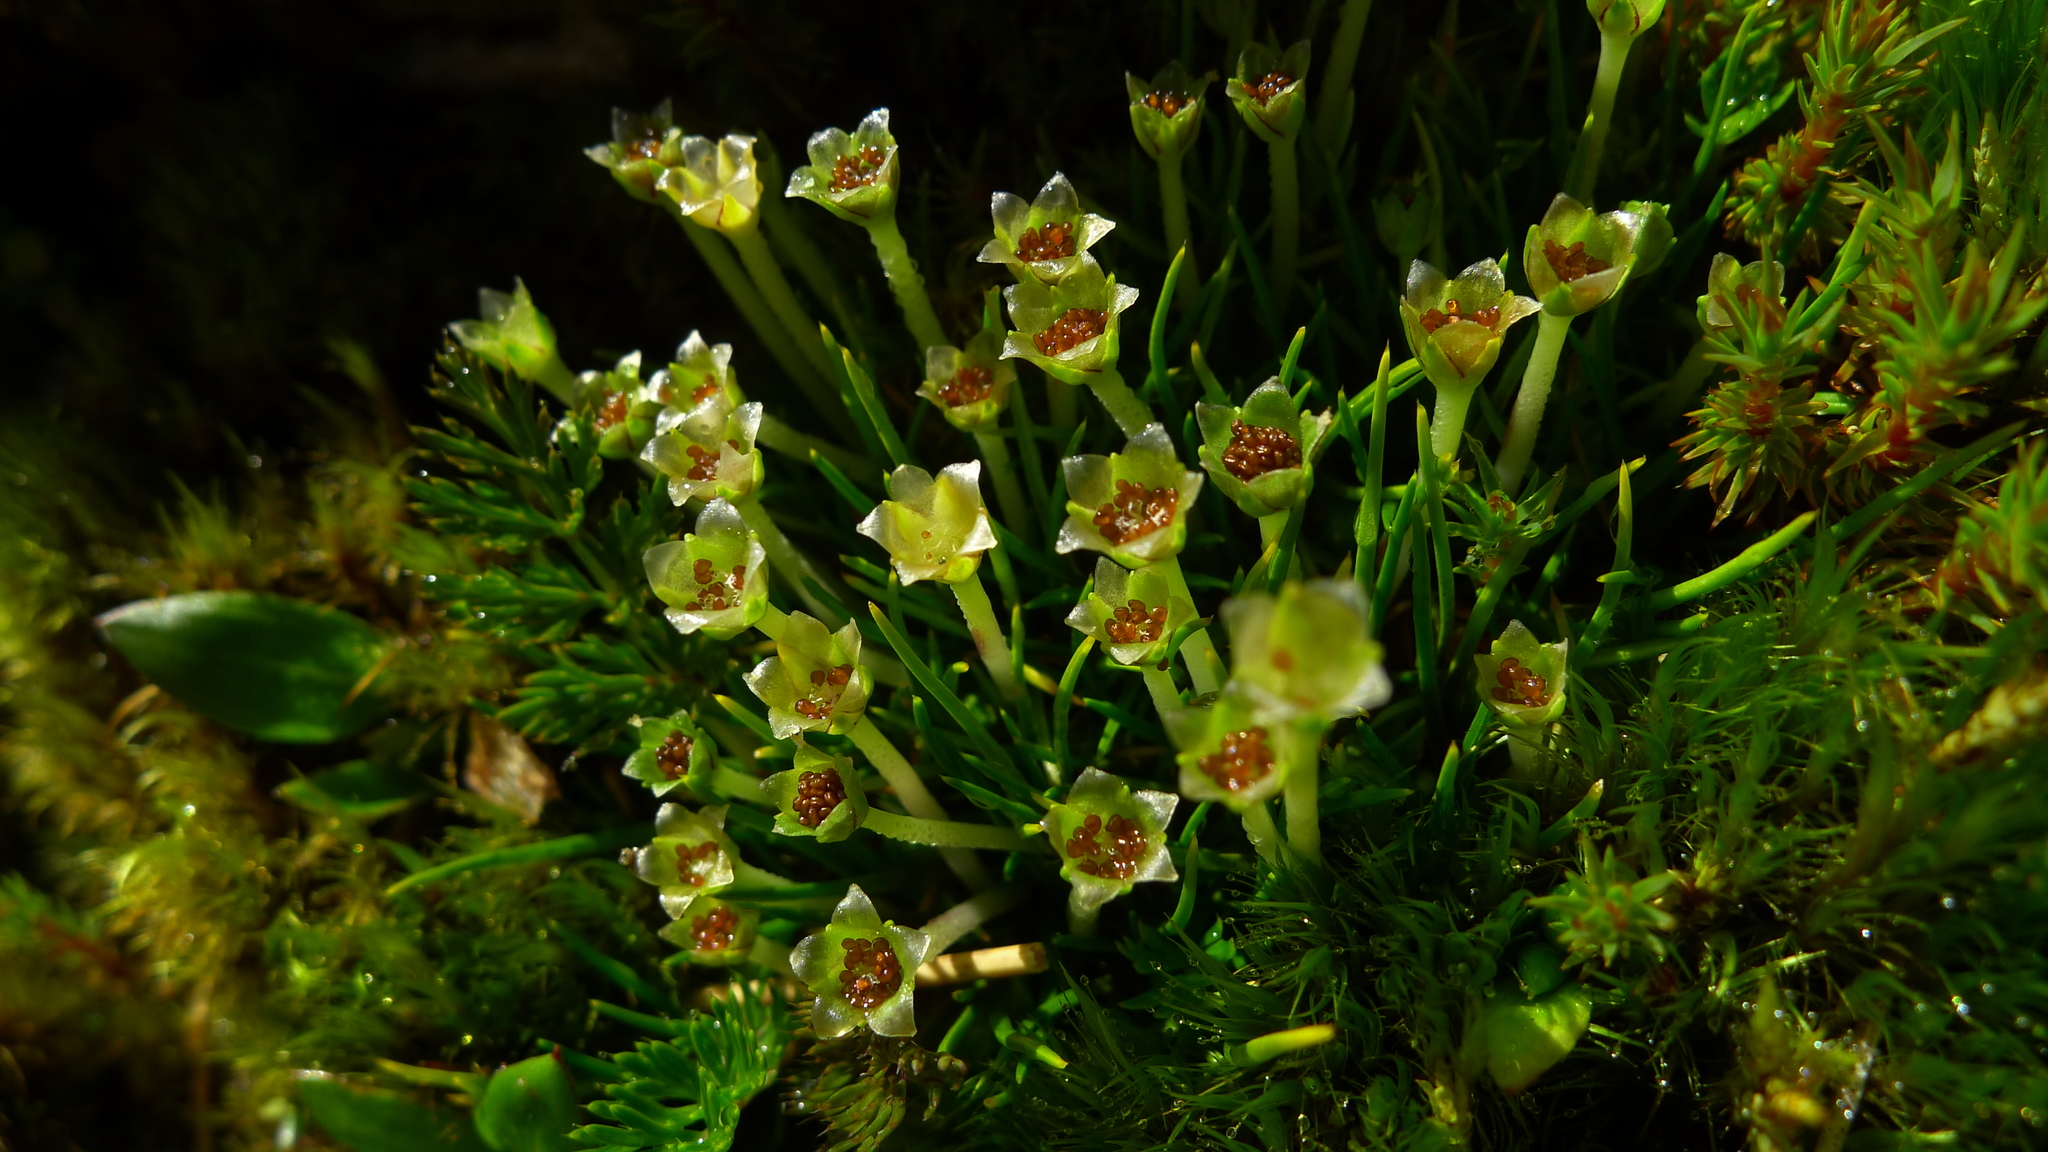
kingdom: Plantae
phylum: Tracheophyta
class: Magnoliopsida
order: Caryophyllales
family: Caryophyllaceae
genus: Colobanthus
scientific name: Colobanthus affinis
